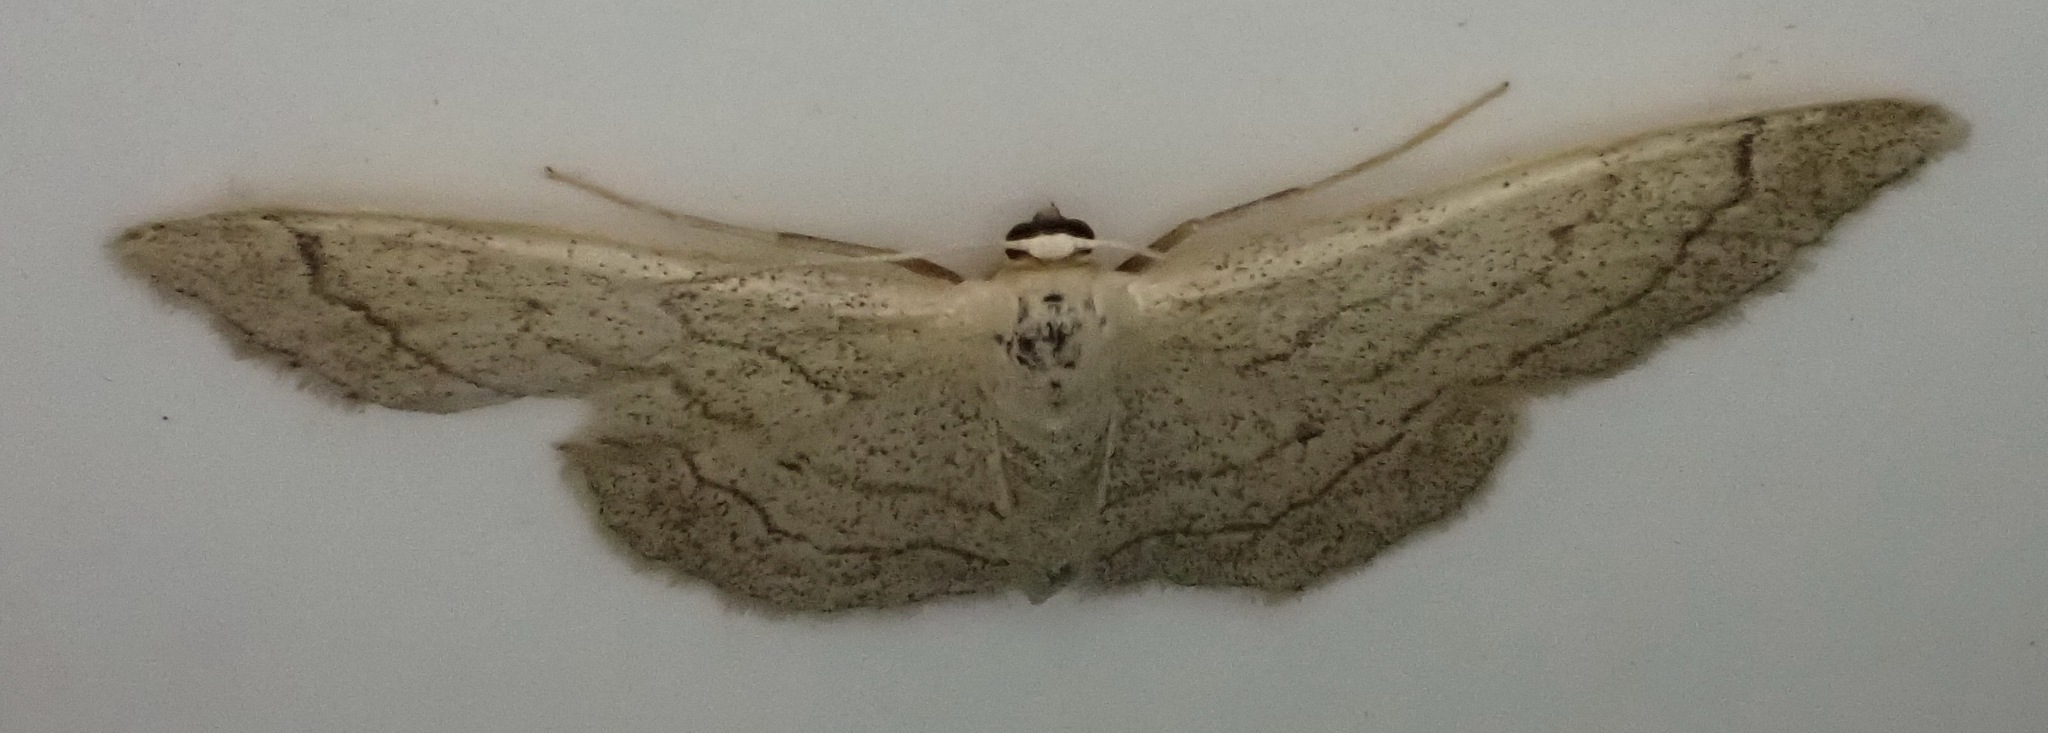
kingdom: Animalia
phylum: Arthropoda
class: Insecta
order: Lepidoptera
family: Geometridae
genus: Idaea
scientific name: Idaea aversata
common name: Riband wave
